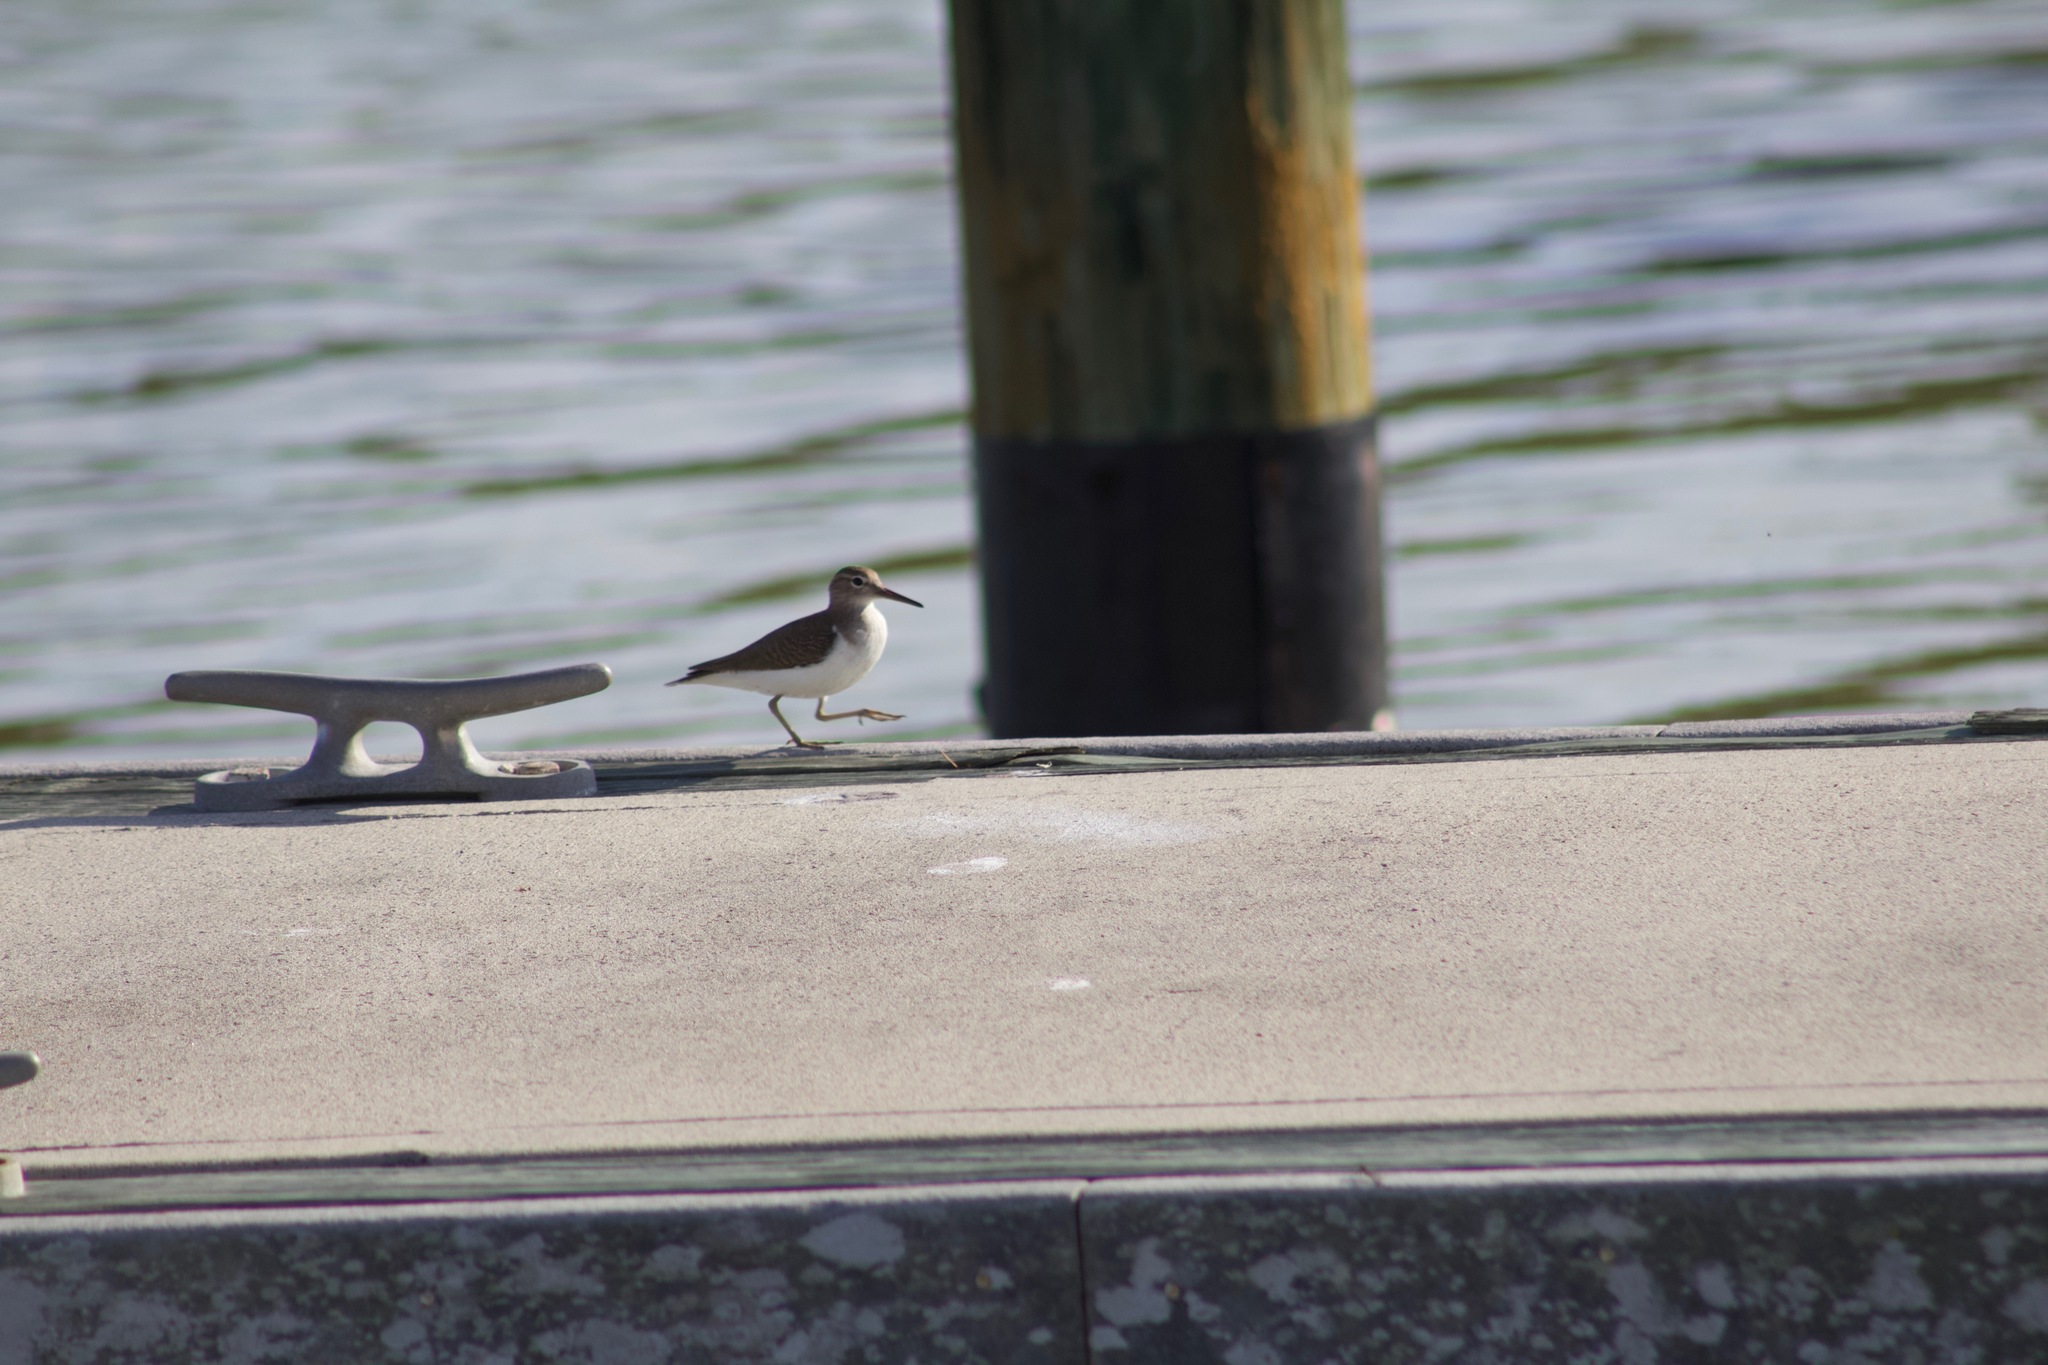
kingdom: Animalia
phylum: Chordata
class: Aves
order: Charadriiformes
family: Scolopacidae
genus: Actitis
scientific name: Actitis macularius
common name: Spotted sandpiper
